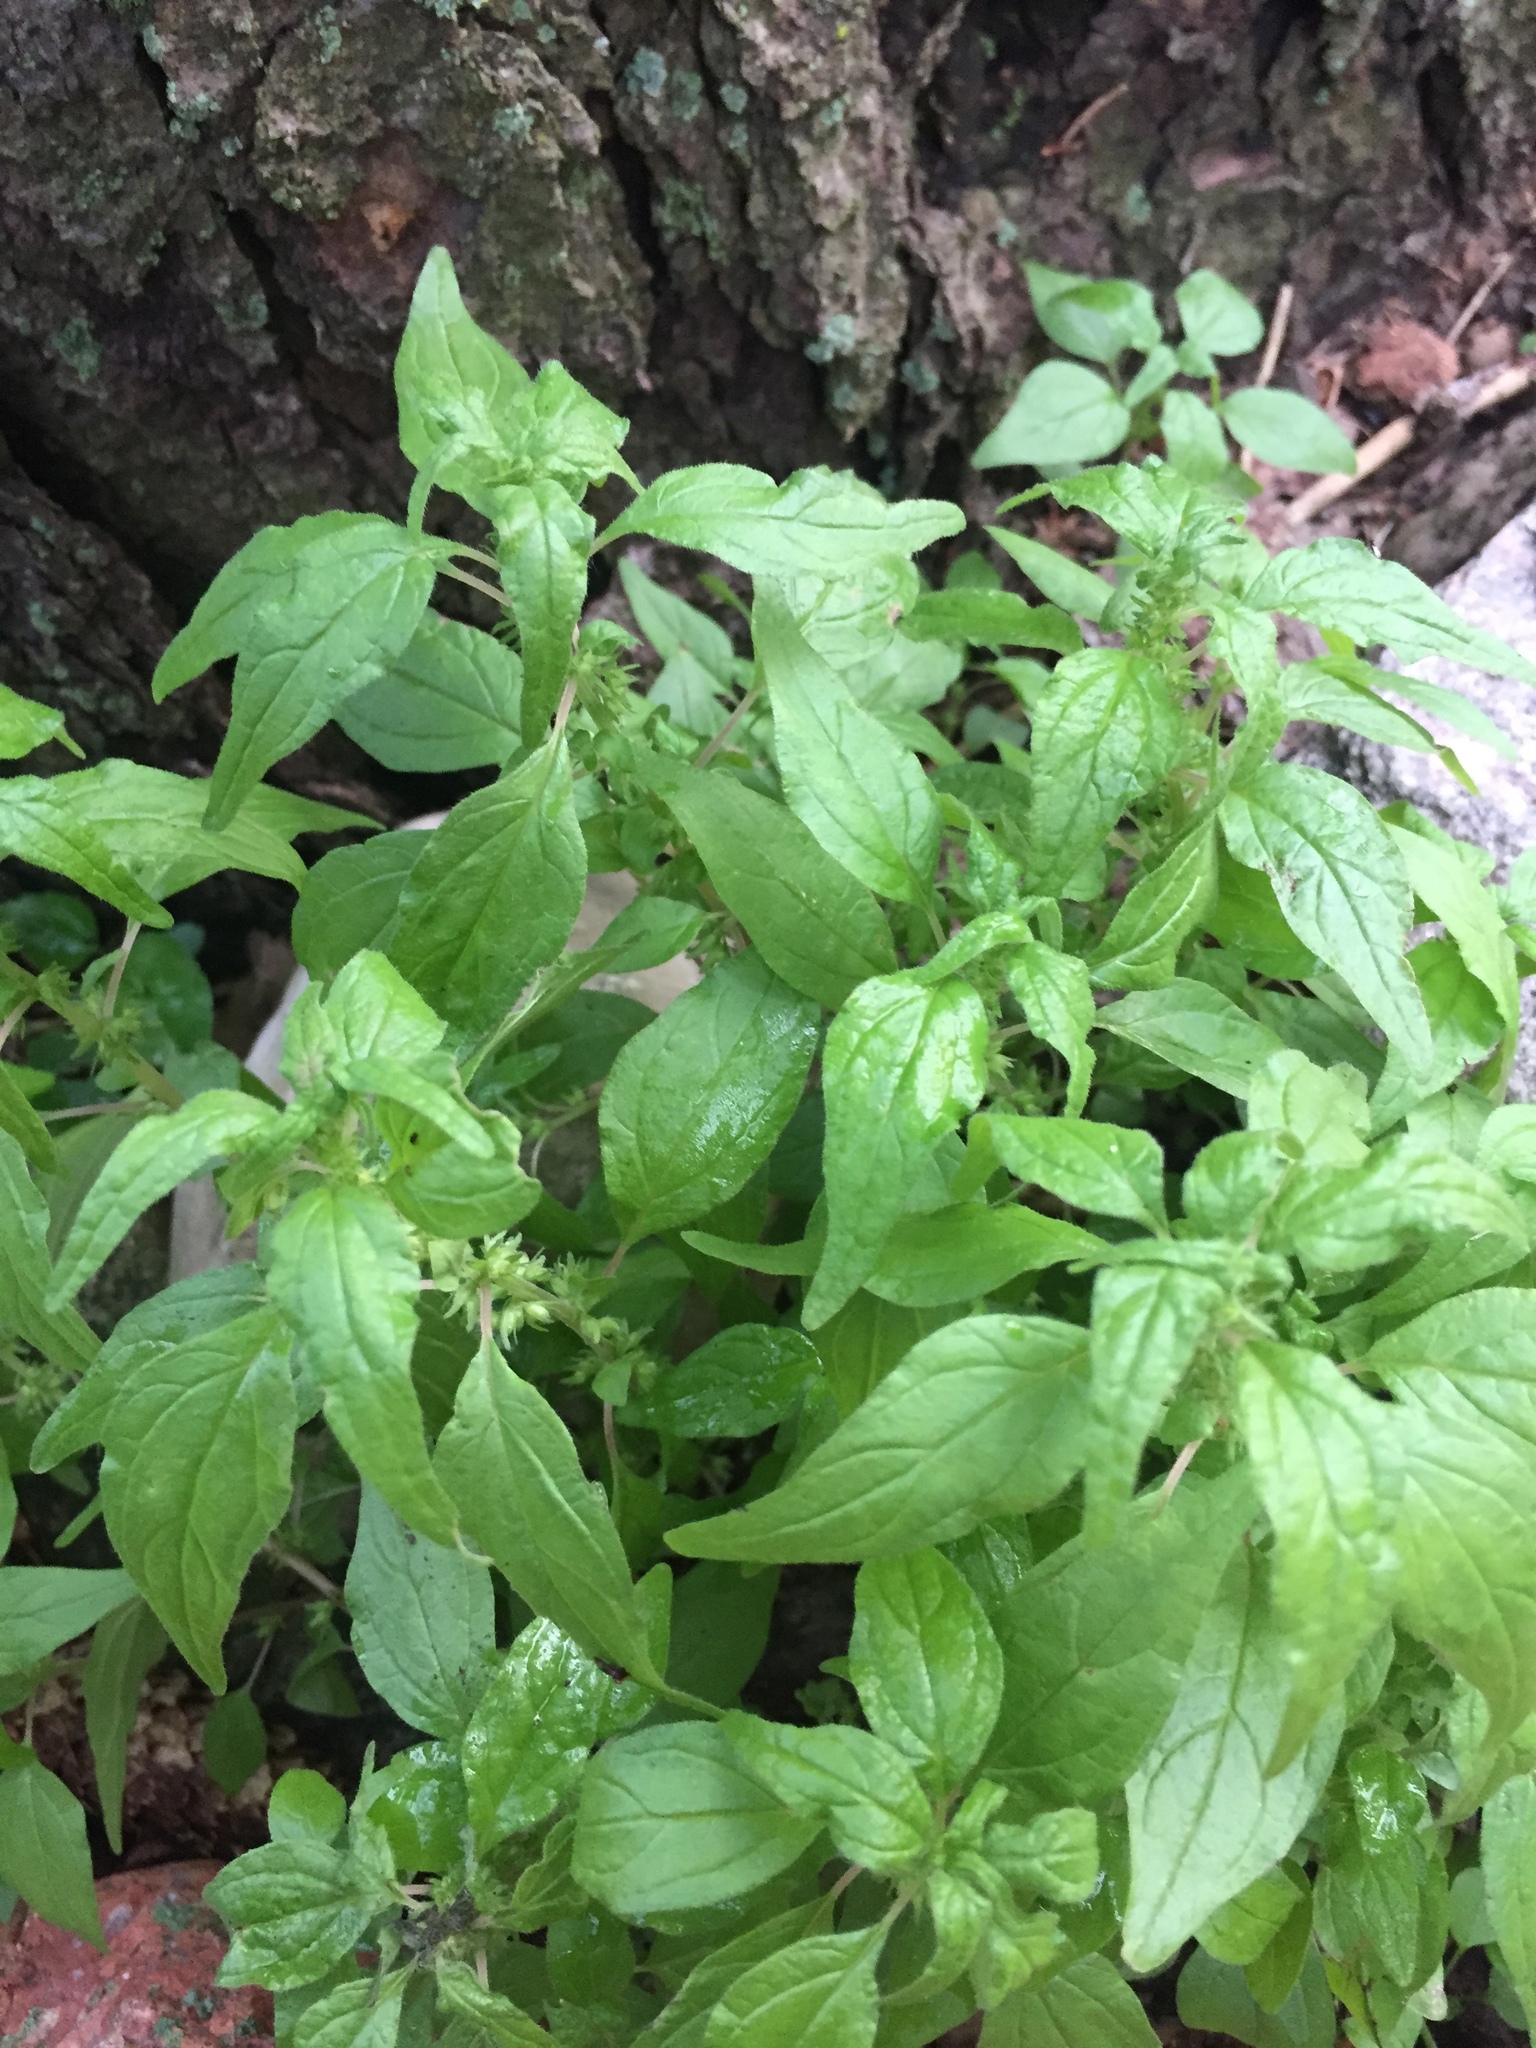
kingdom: Plantae
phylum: Tracheophyta
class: Magnoliopsida
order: Rosales
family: Urticaceae
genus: Parietaria
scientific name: Parietaria pensylvanica
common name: Pennsylvania pellitory
